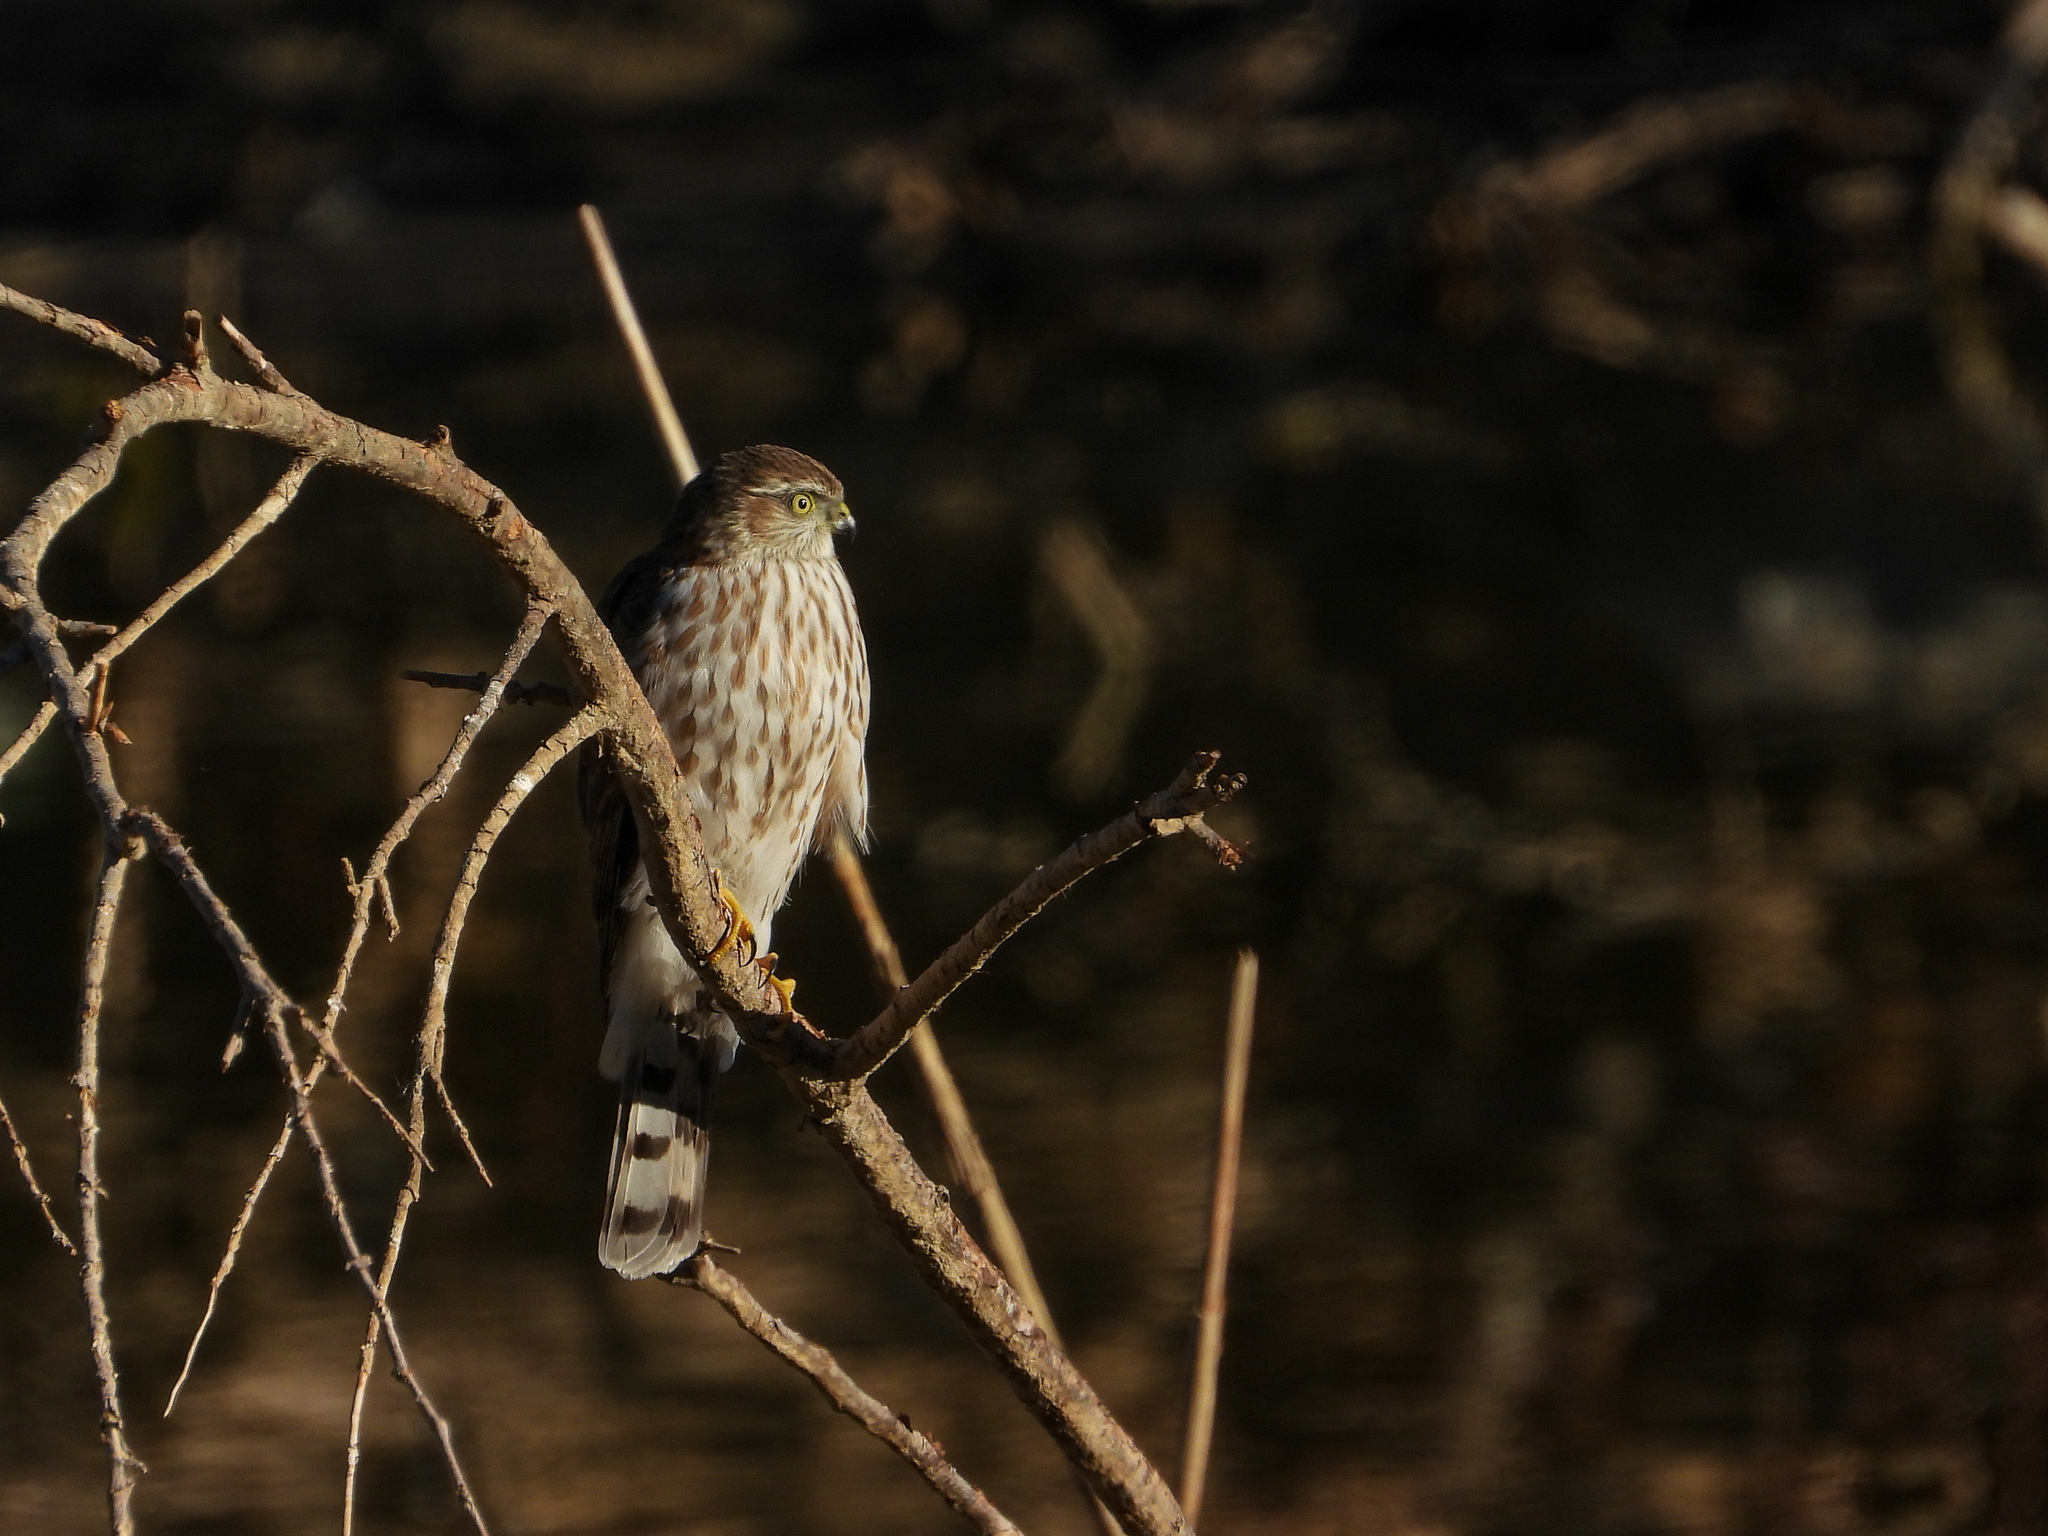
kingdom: Animalia
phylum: Chordata
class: Aves
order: Accipitriformes
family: Accipitridae
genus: Accipiter
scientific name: Accipiter striatus
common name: Sharp-shinned hawk
